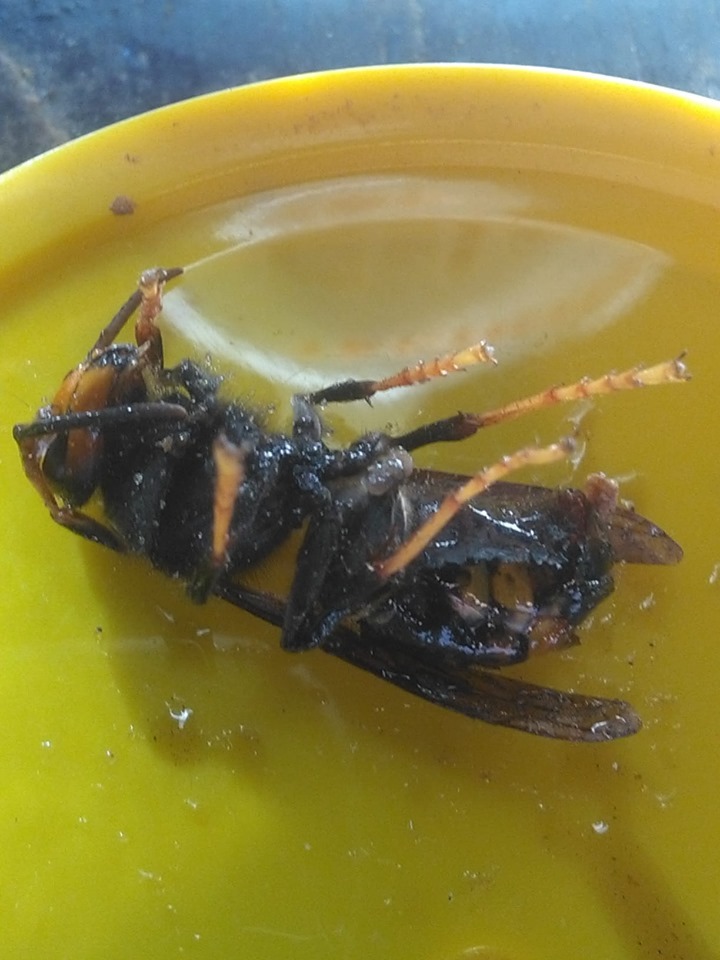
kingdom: Animalia
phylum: Arthropoda
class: Insecta
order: Hymenoptera
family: Vespidae
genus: Vespa
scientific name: Vespa velutina
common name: Asian hornet
